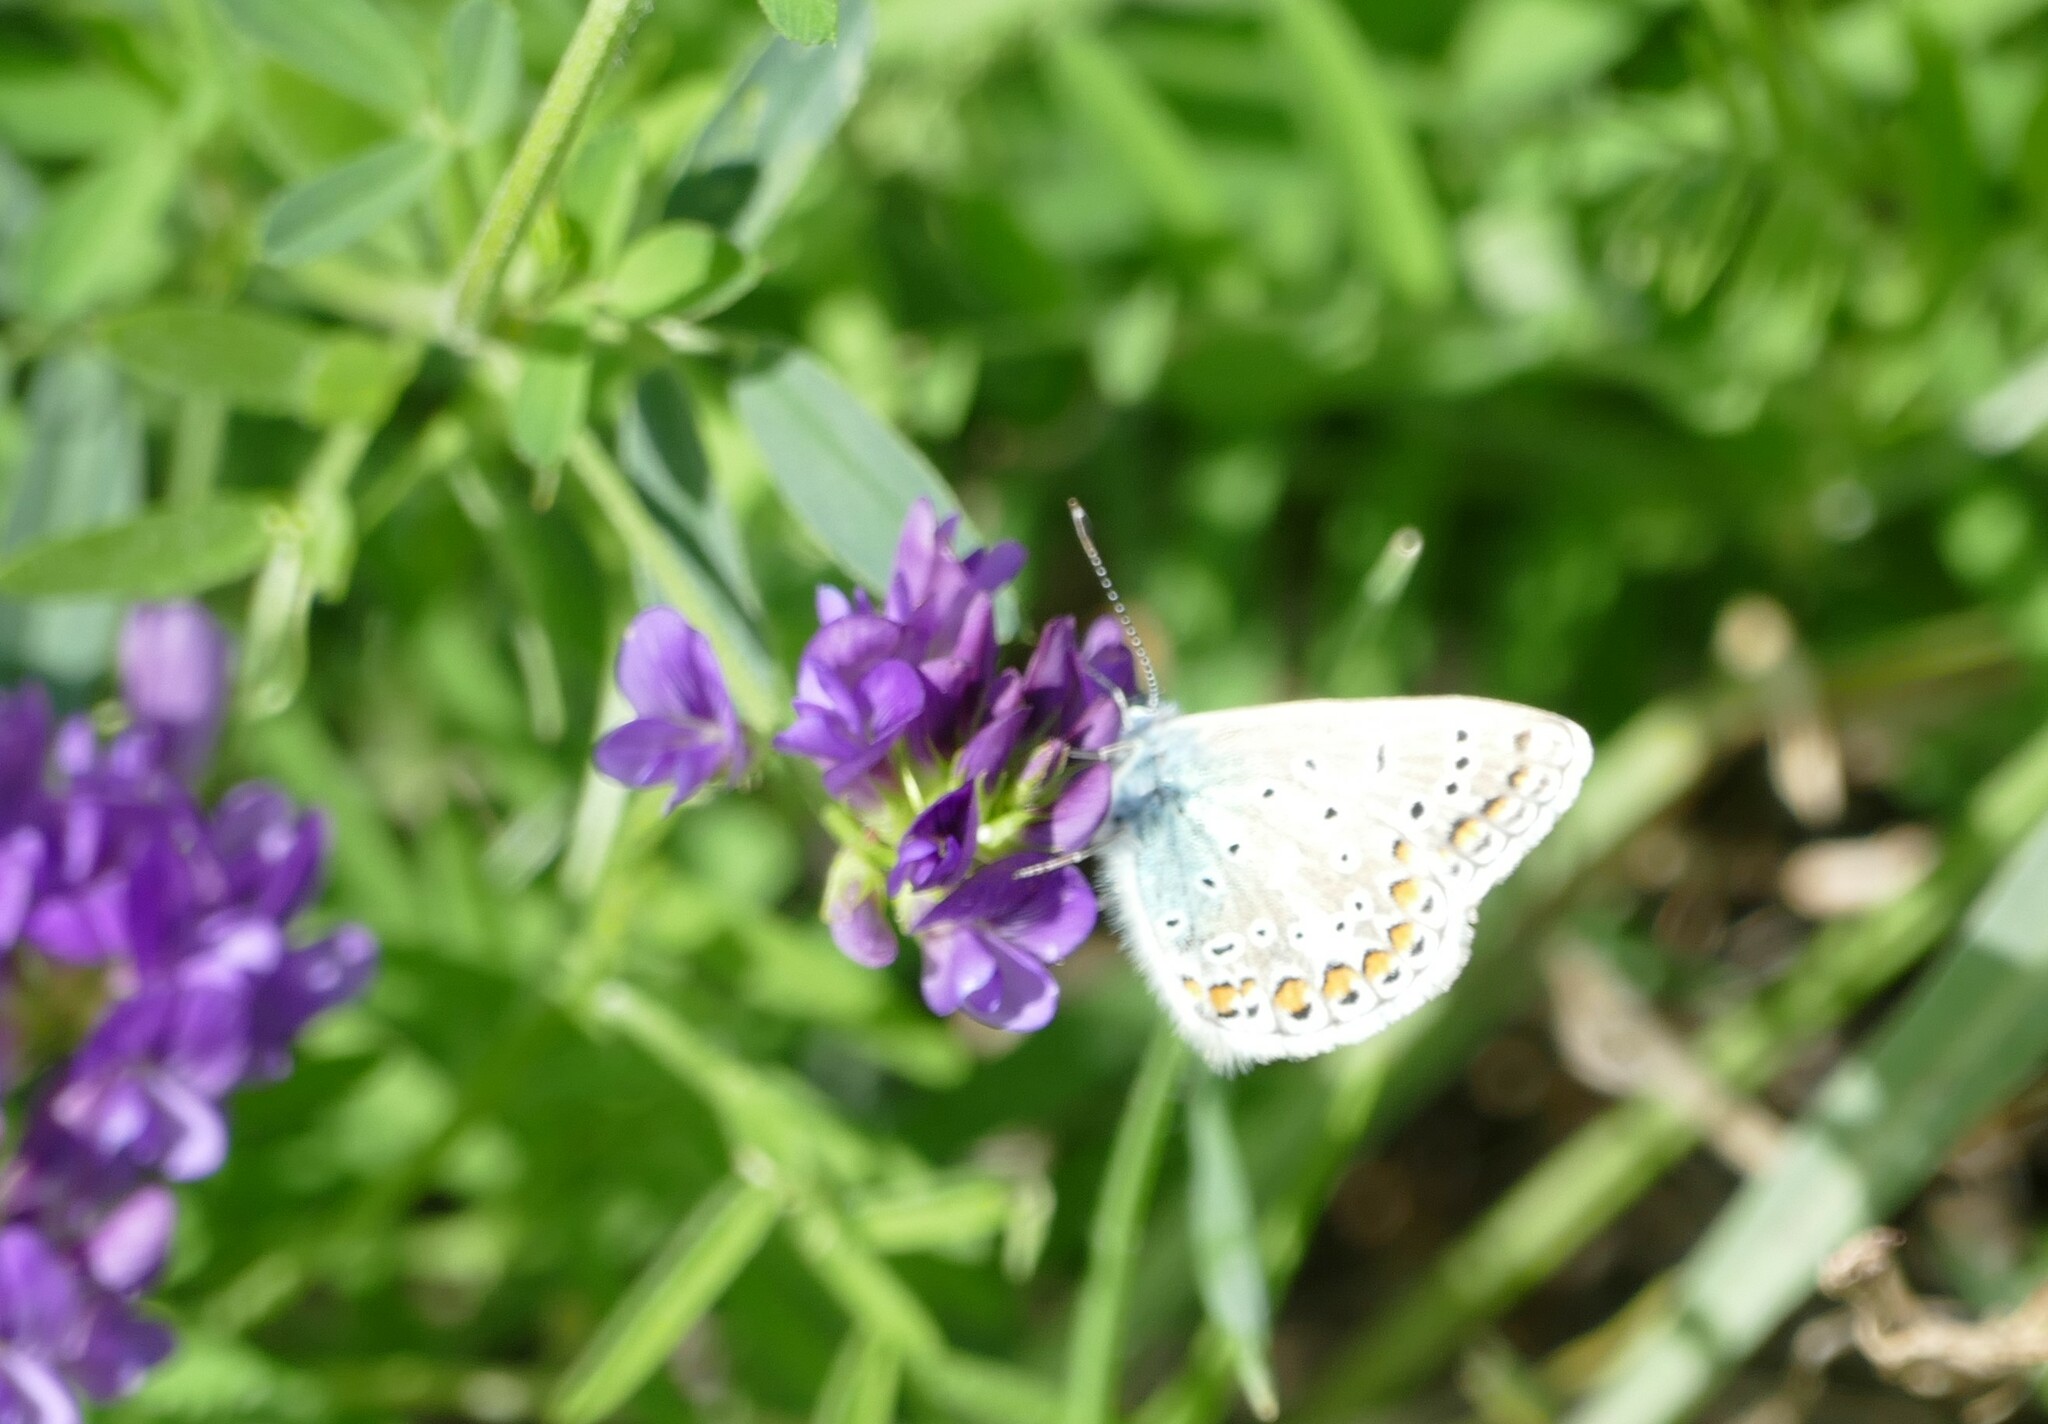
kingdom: Animalia
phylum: Arthropoda
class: Insecta
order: Lepidoptera
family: Lycaenidae
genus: Polyommatus
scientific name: Polyommatus icarus
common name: Common blue
